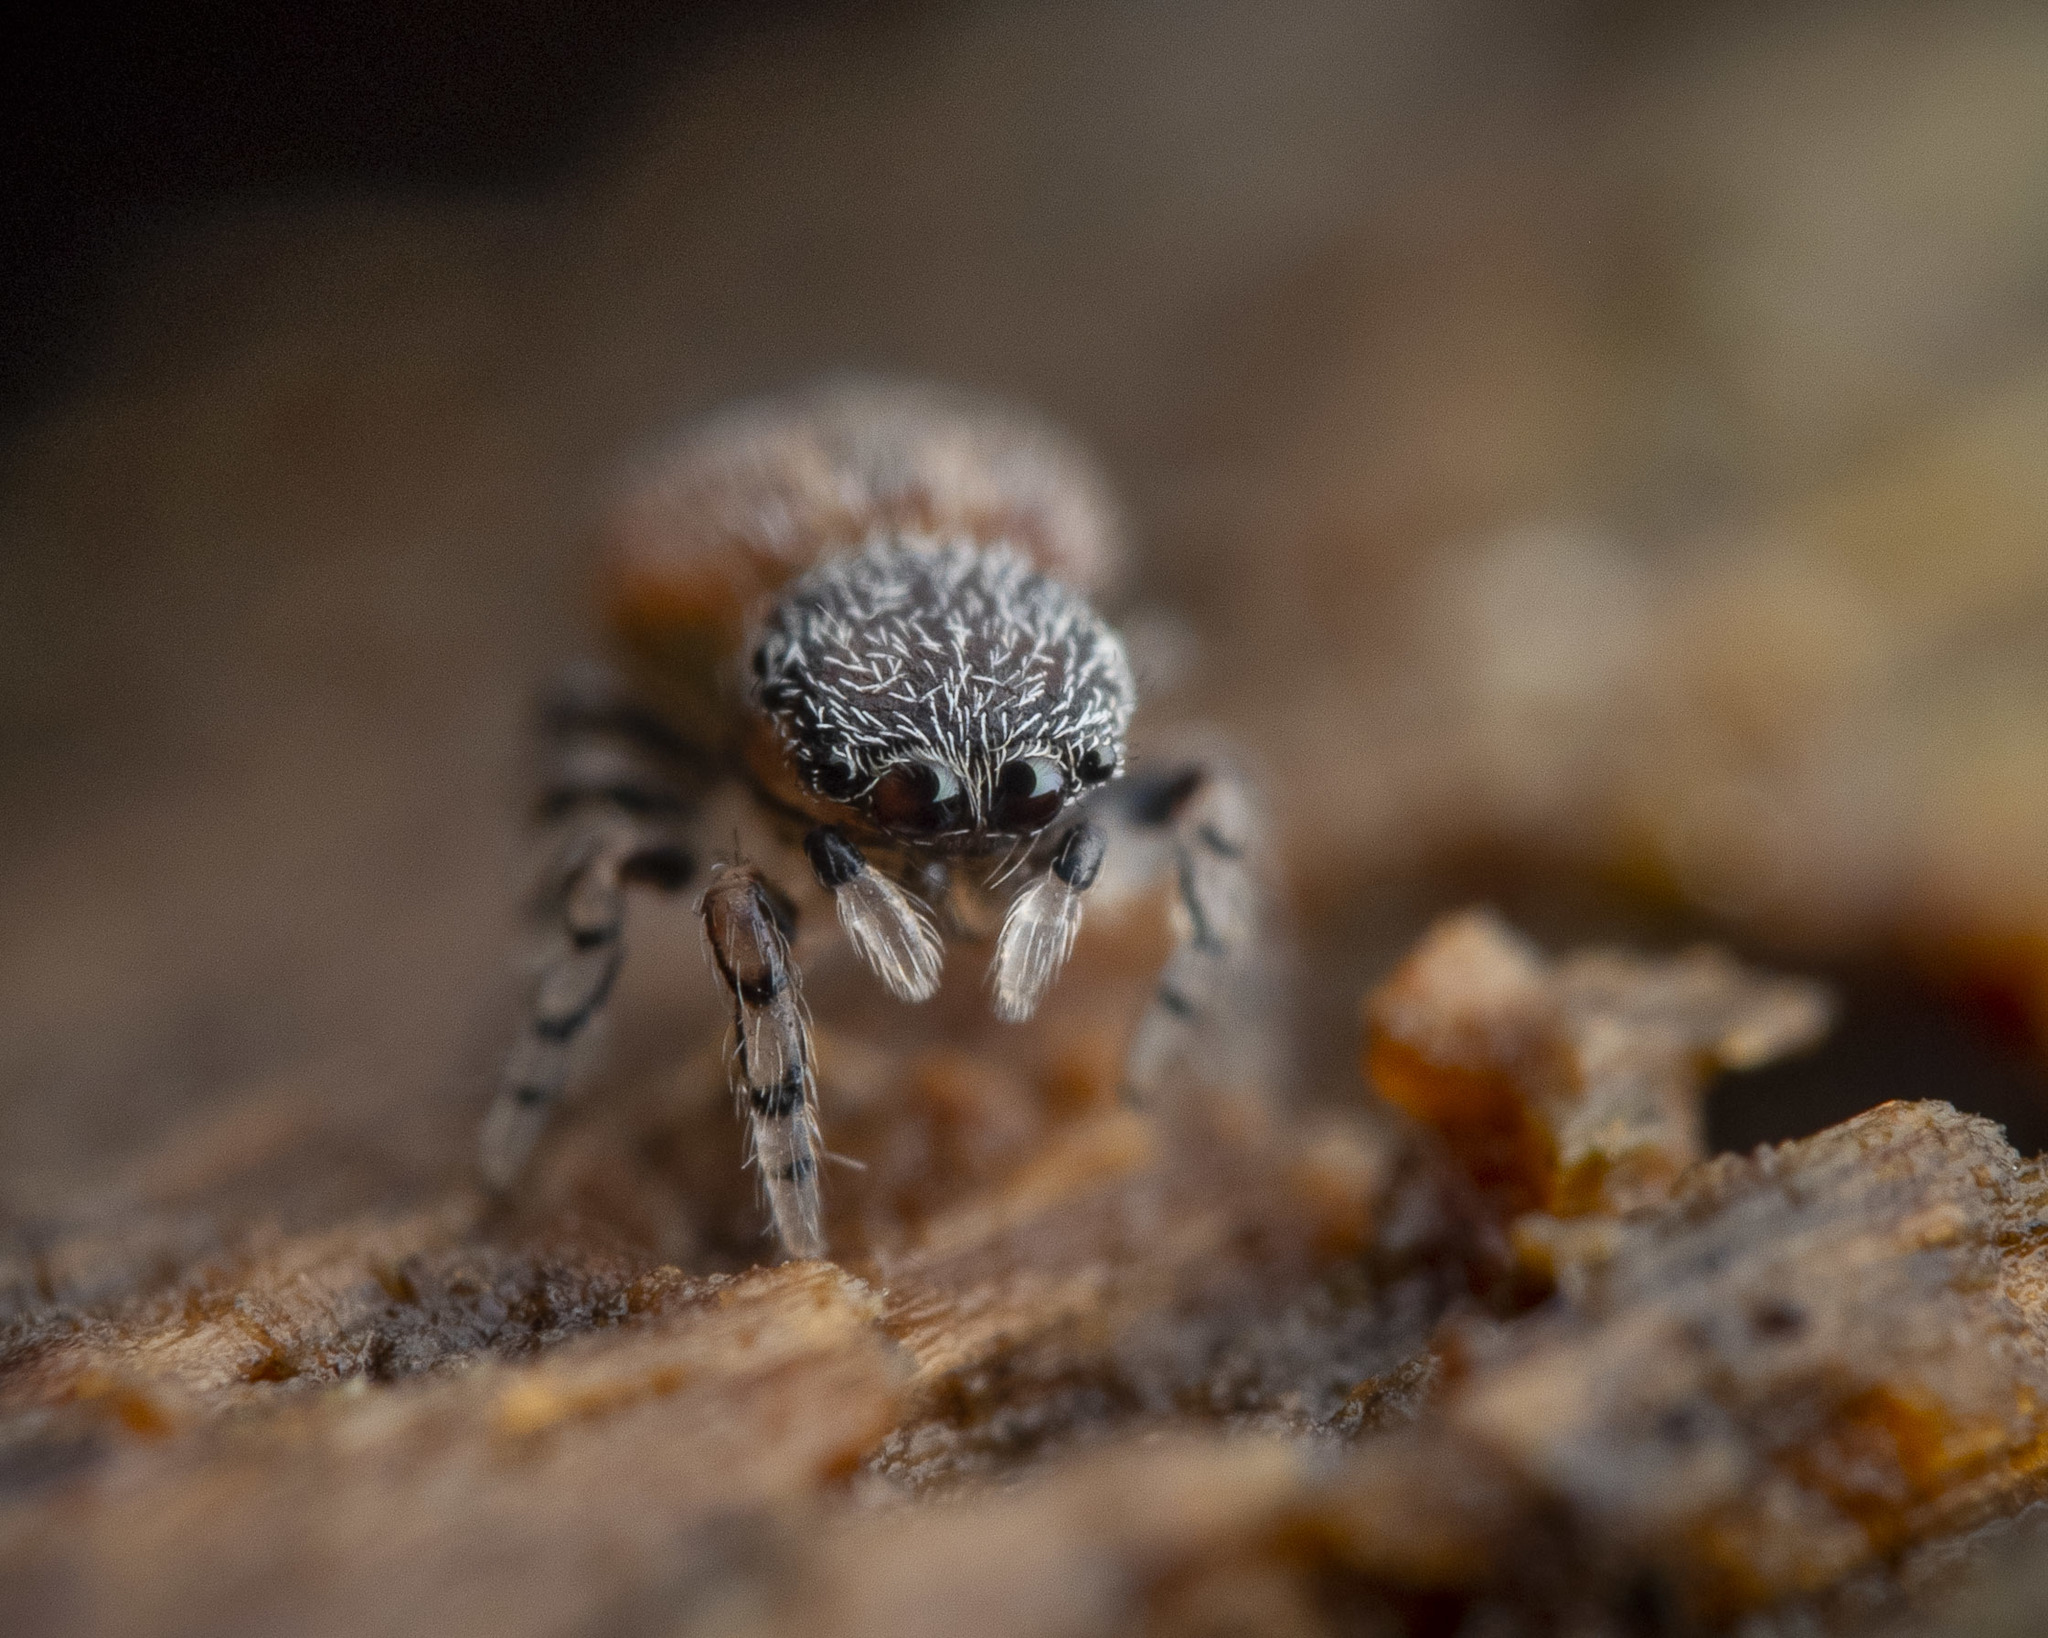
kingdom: Animalia
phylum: Arthropoda
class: Arachnida
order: Araneae
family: Salticidae
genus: Ballus
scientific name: Ballus chalybeius
